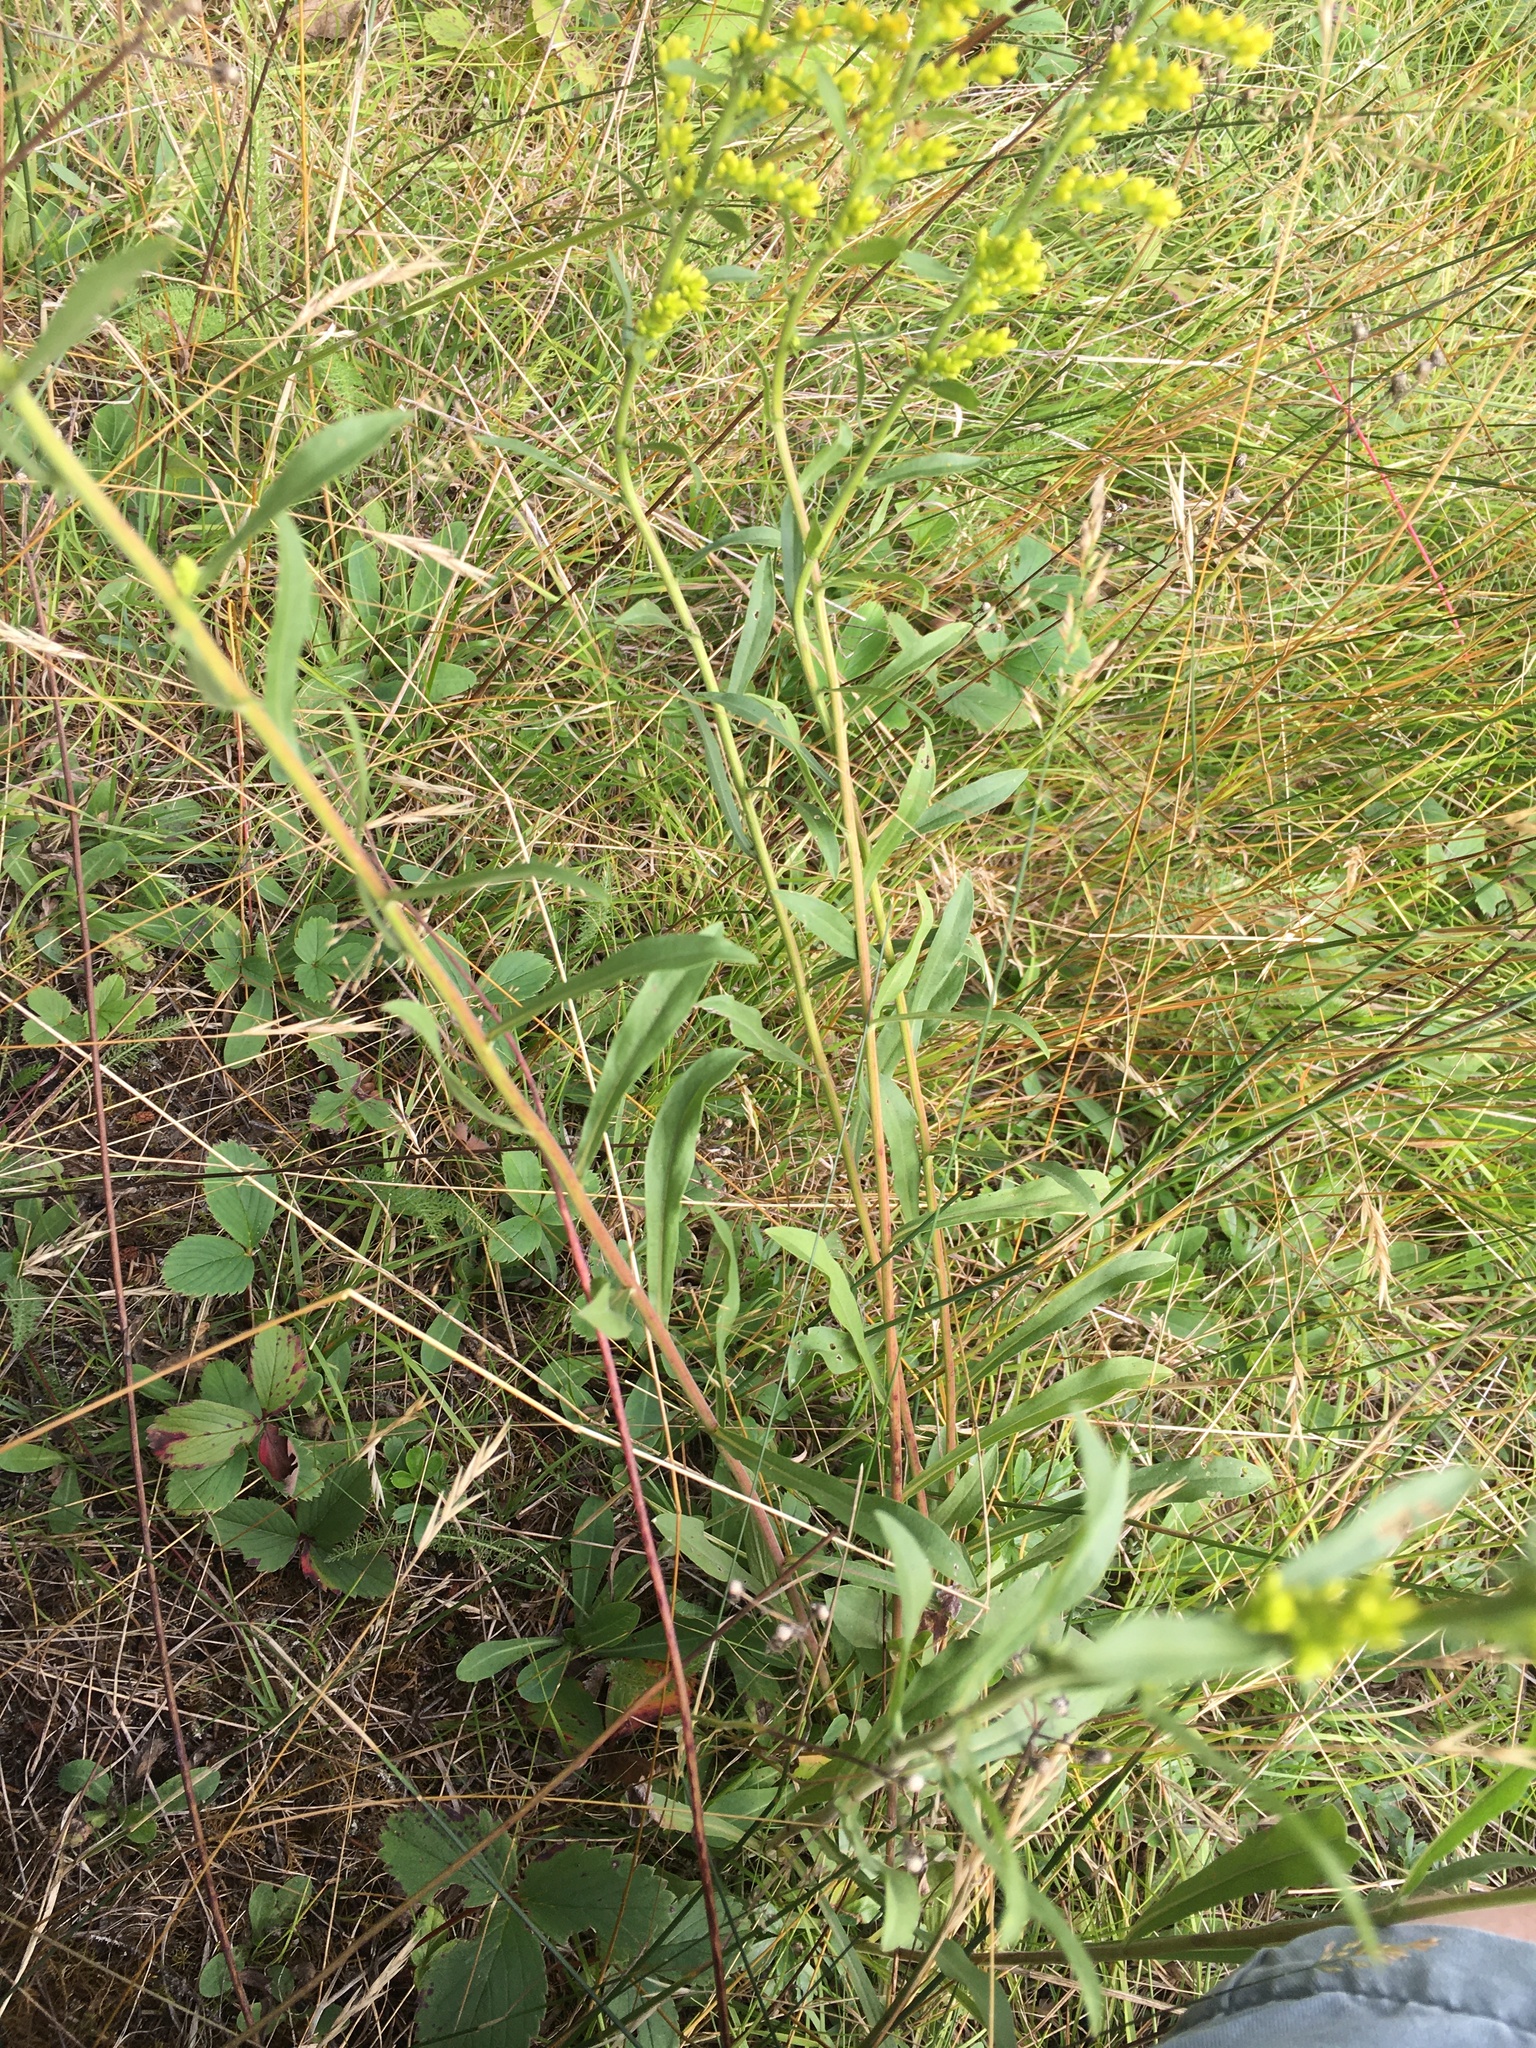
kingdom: Plantae
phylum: Tracheophyta
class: Magnoliopsida
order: Asterales
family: Asteraceae
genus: Solidago
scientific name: Solidago nemoralis
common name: Grey goldenrod
